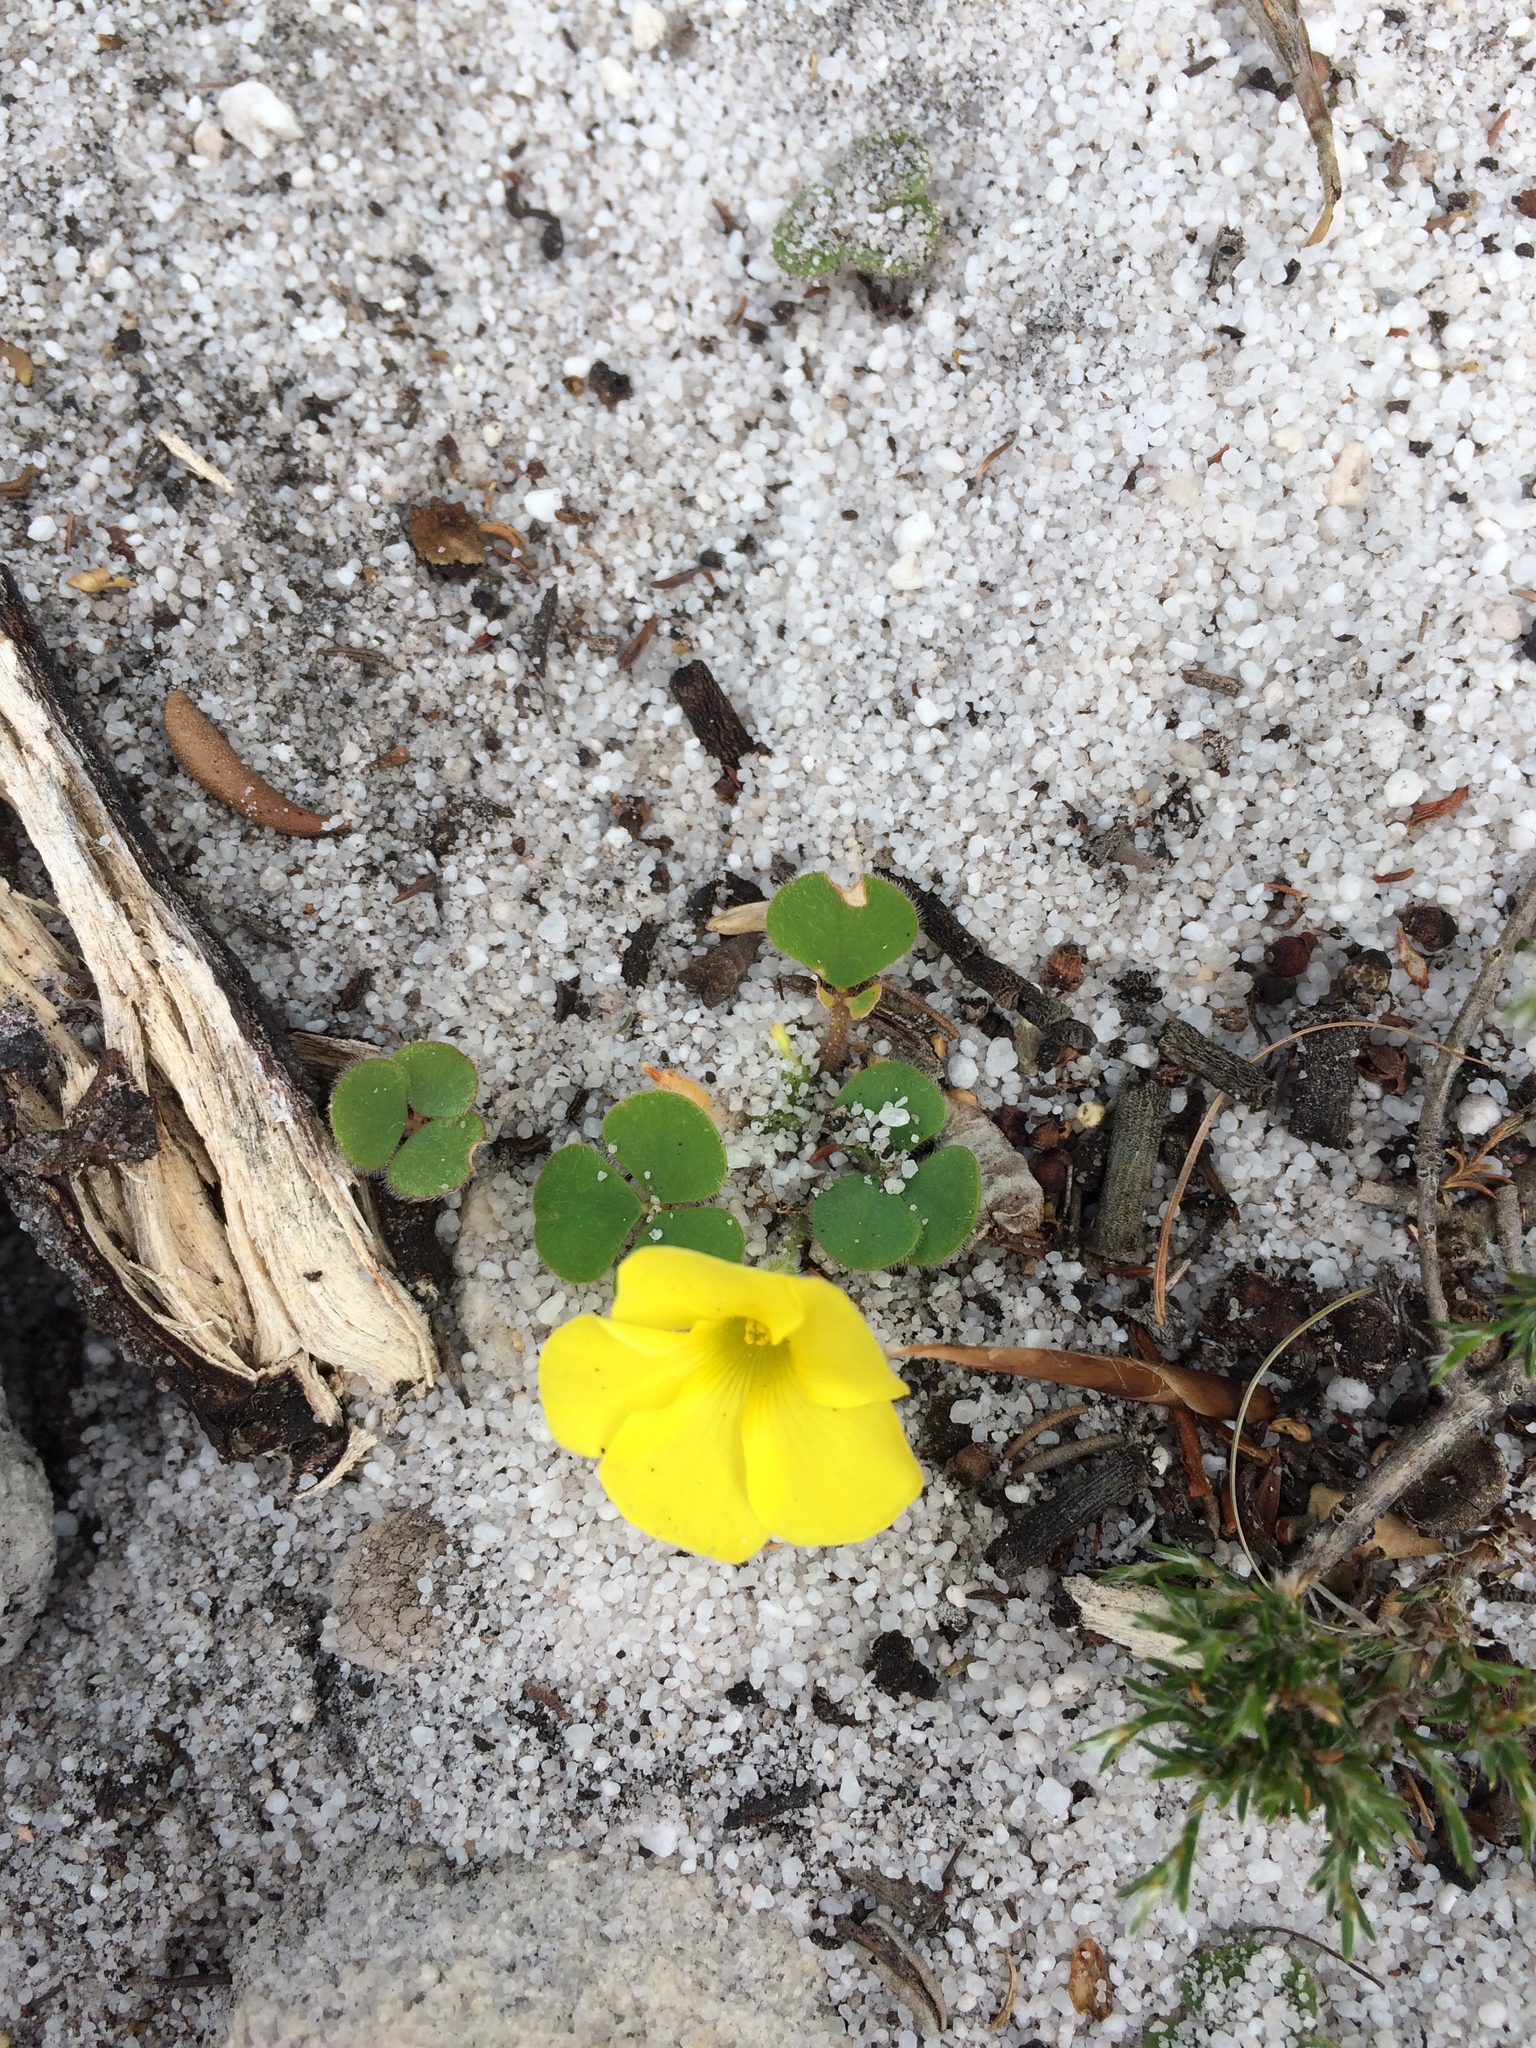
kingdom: Plantae
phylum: Tracheophyta
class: Magnoliopsida
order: Oxalidales
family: Oxalidaceae
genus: Oxalis
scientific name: Oxalis luteola
